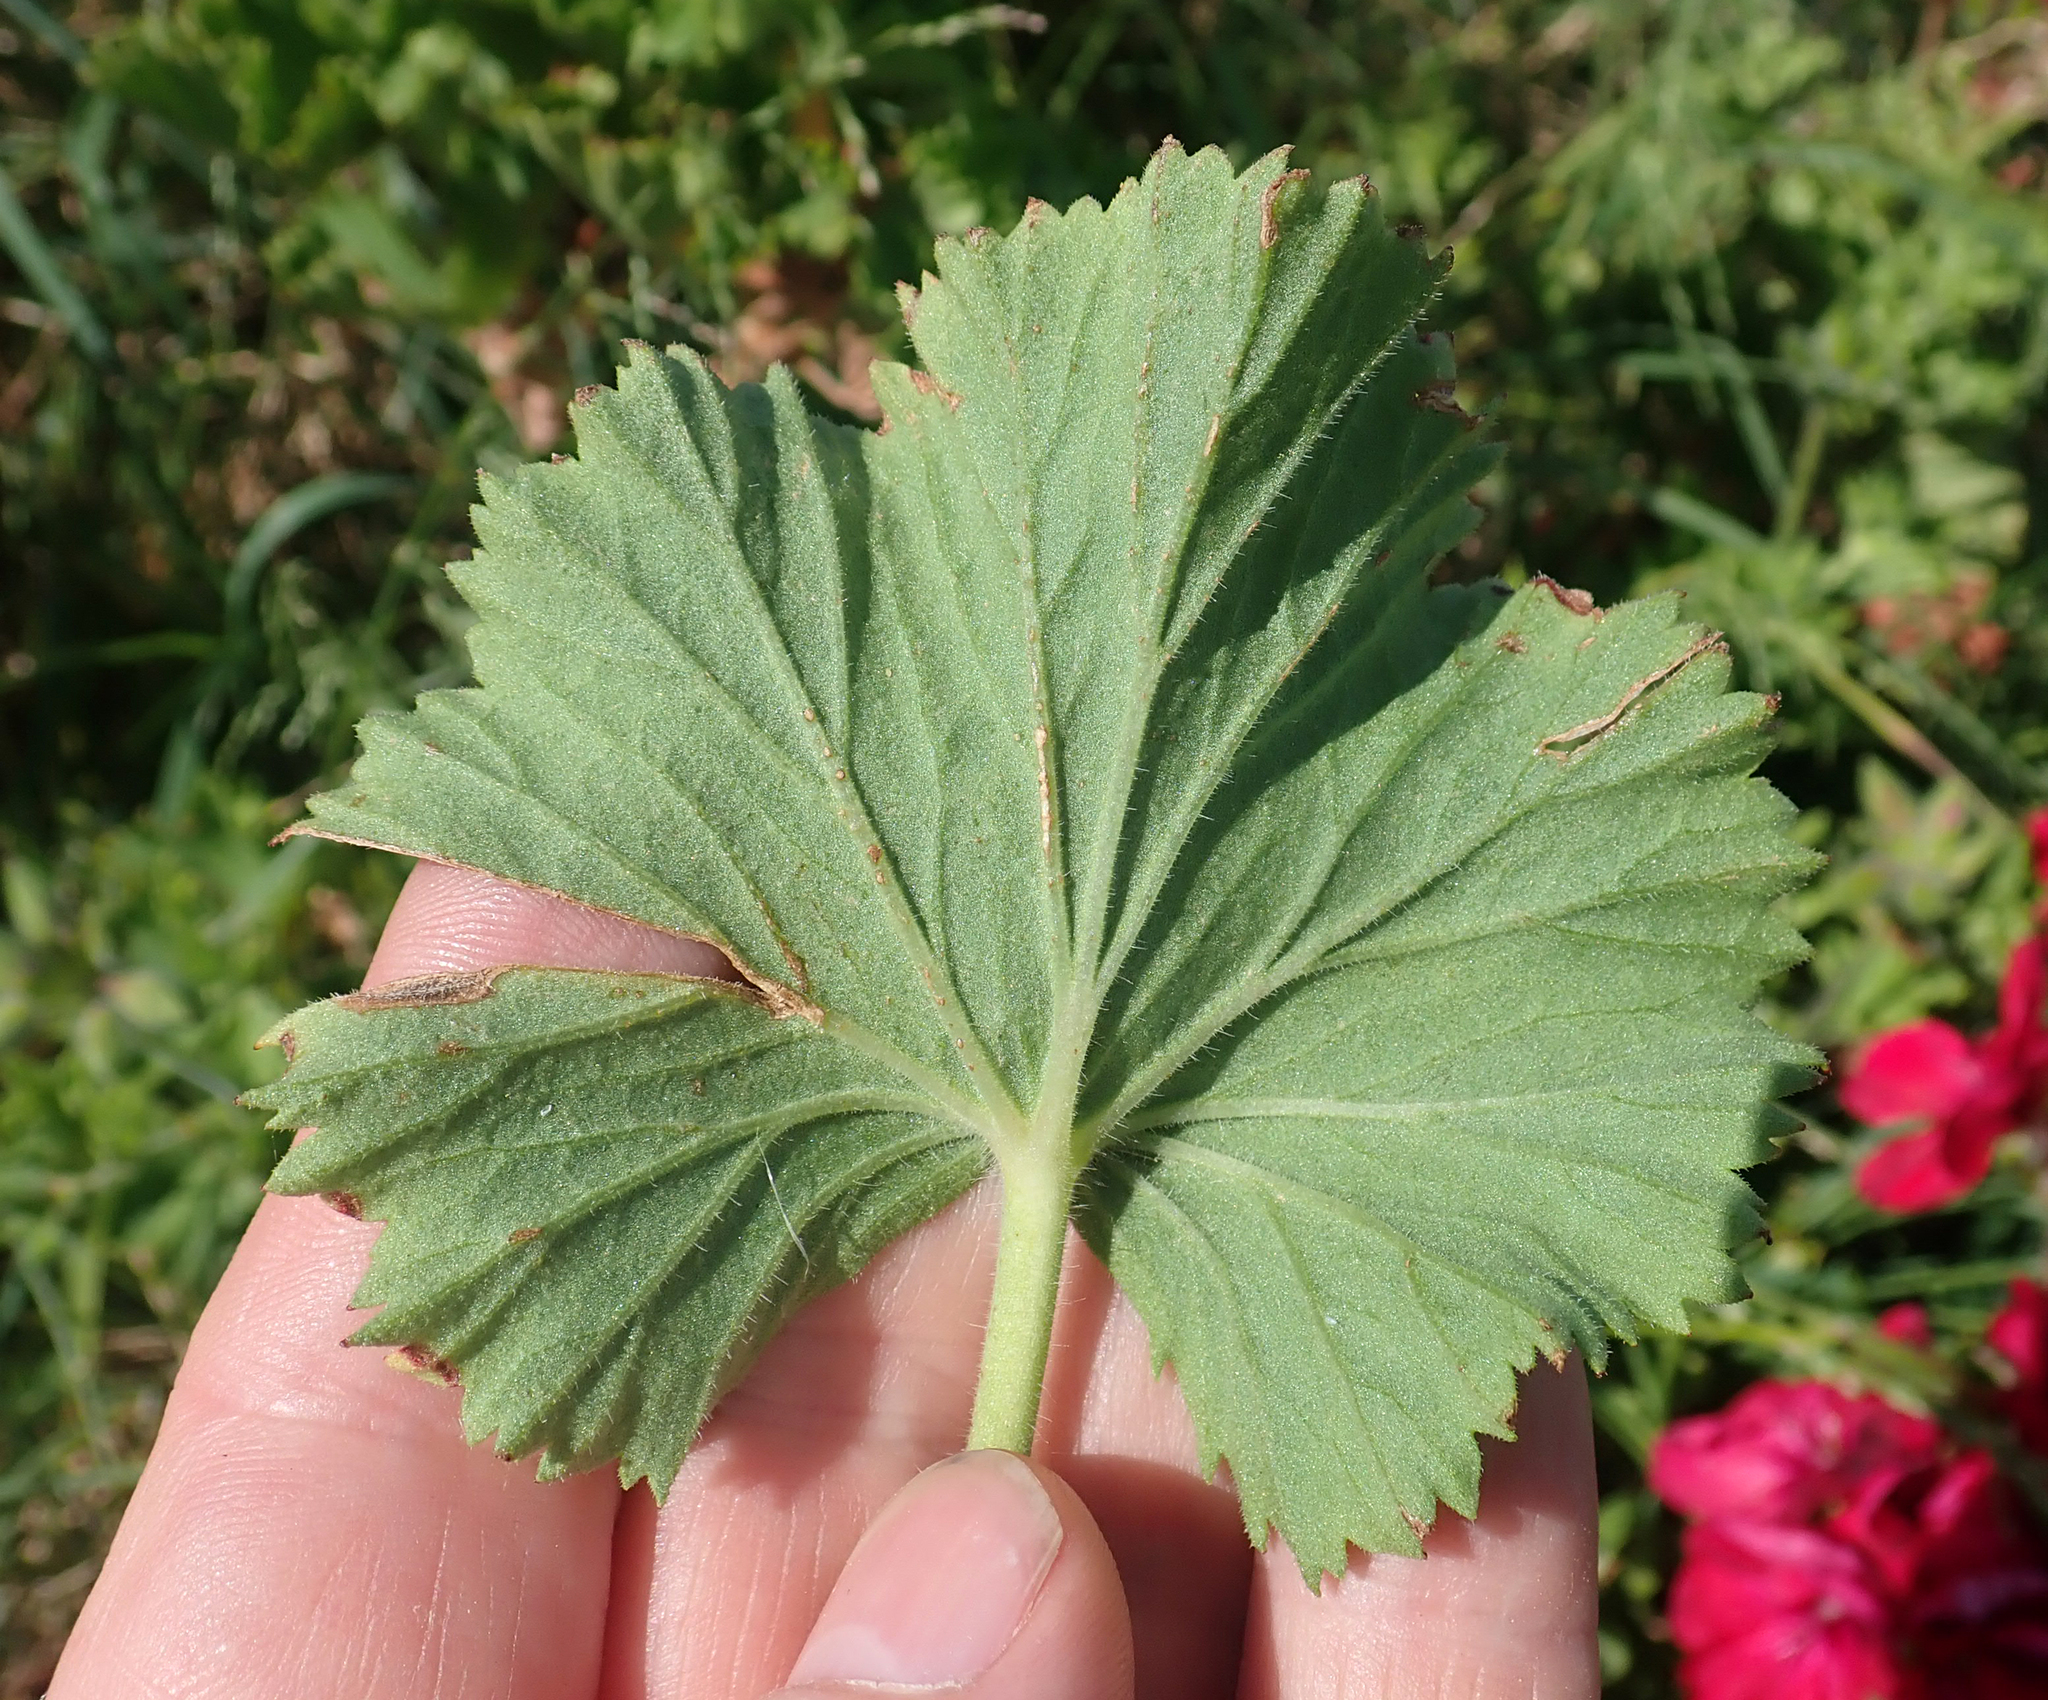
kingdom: Plantae
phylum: Tracheophyta
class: Magnoliopsida
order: Geraniales
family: Geraniaceae
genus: Pelargonium
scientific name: Pelargonium domesticum
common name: Regal pelargonium
